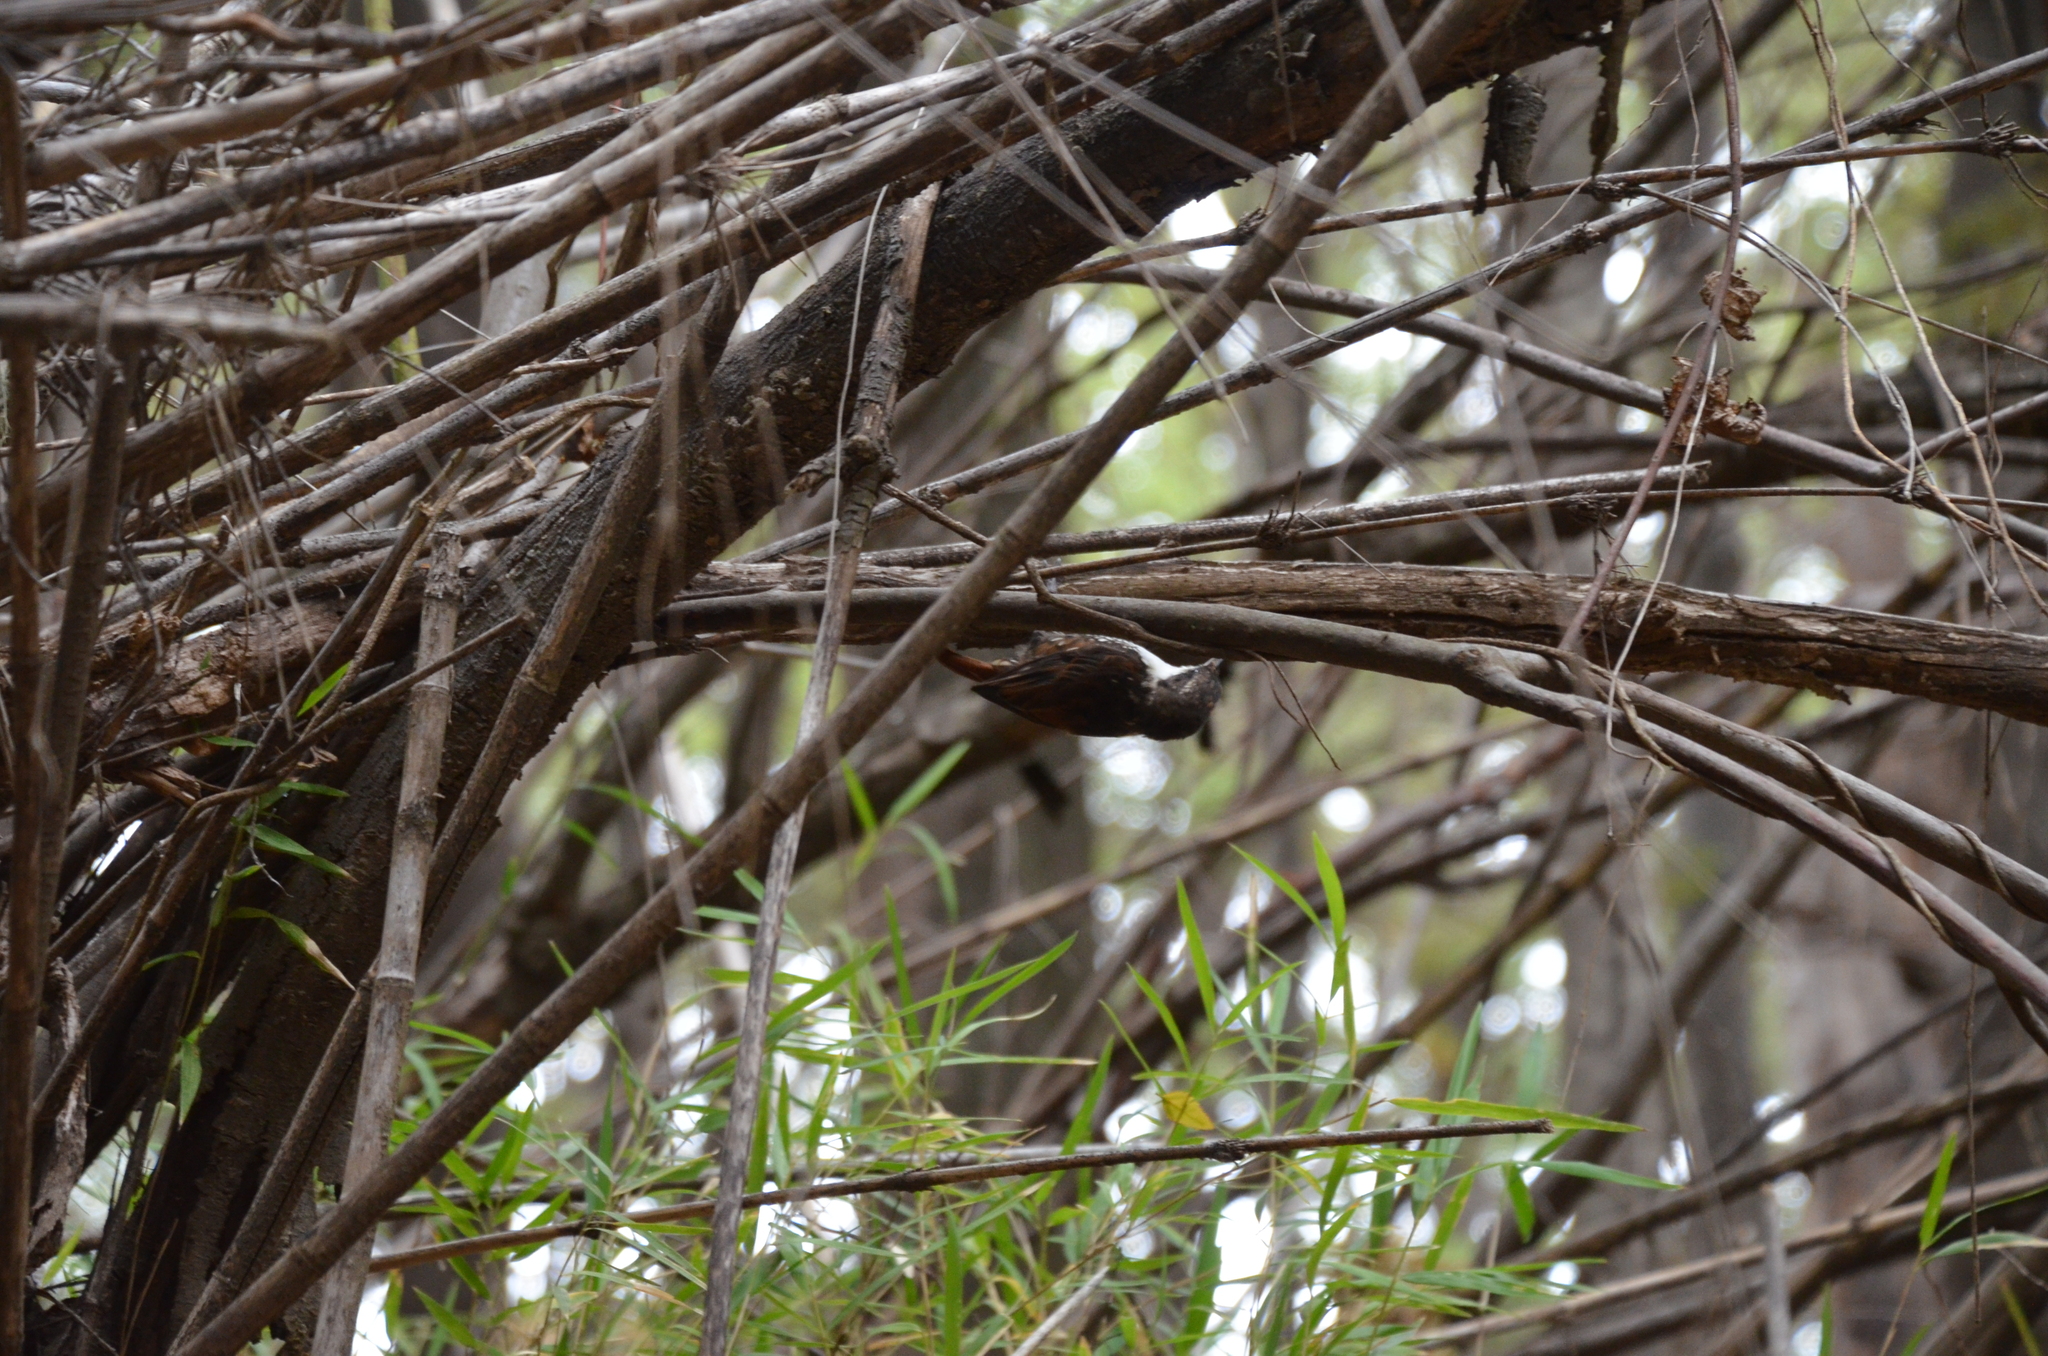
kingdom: Animalia
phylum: Chordata
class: Aves
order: Passeriformes
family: Furnariidae
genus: Pygarrhichas
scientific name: Pygarrhichas albogularis
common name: White-throated treerunner
